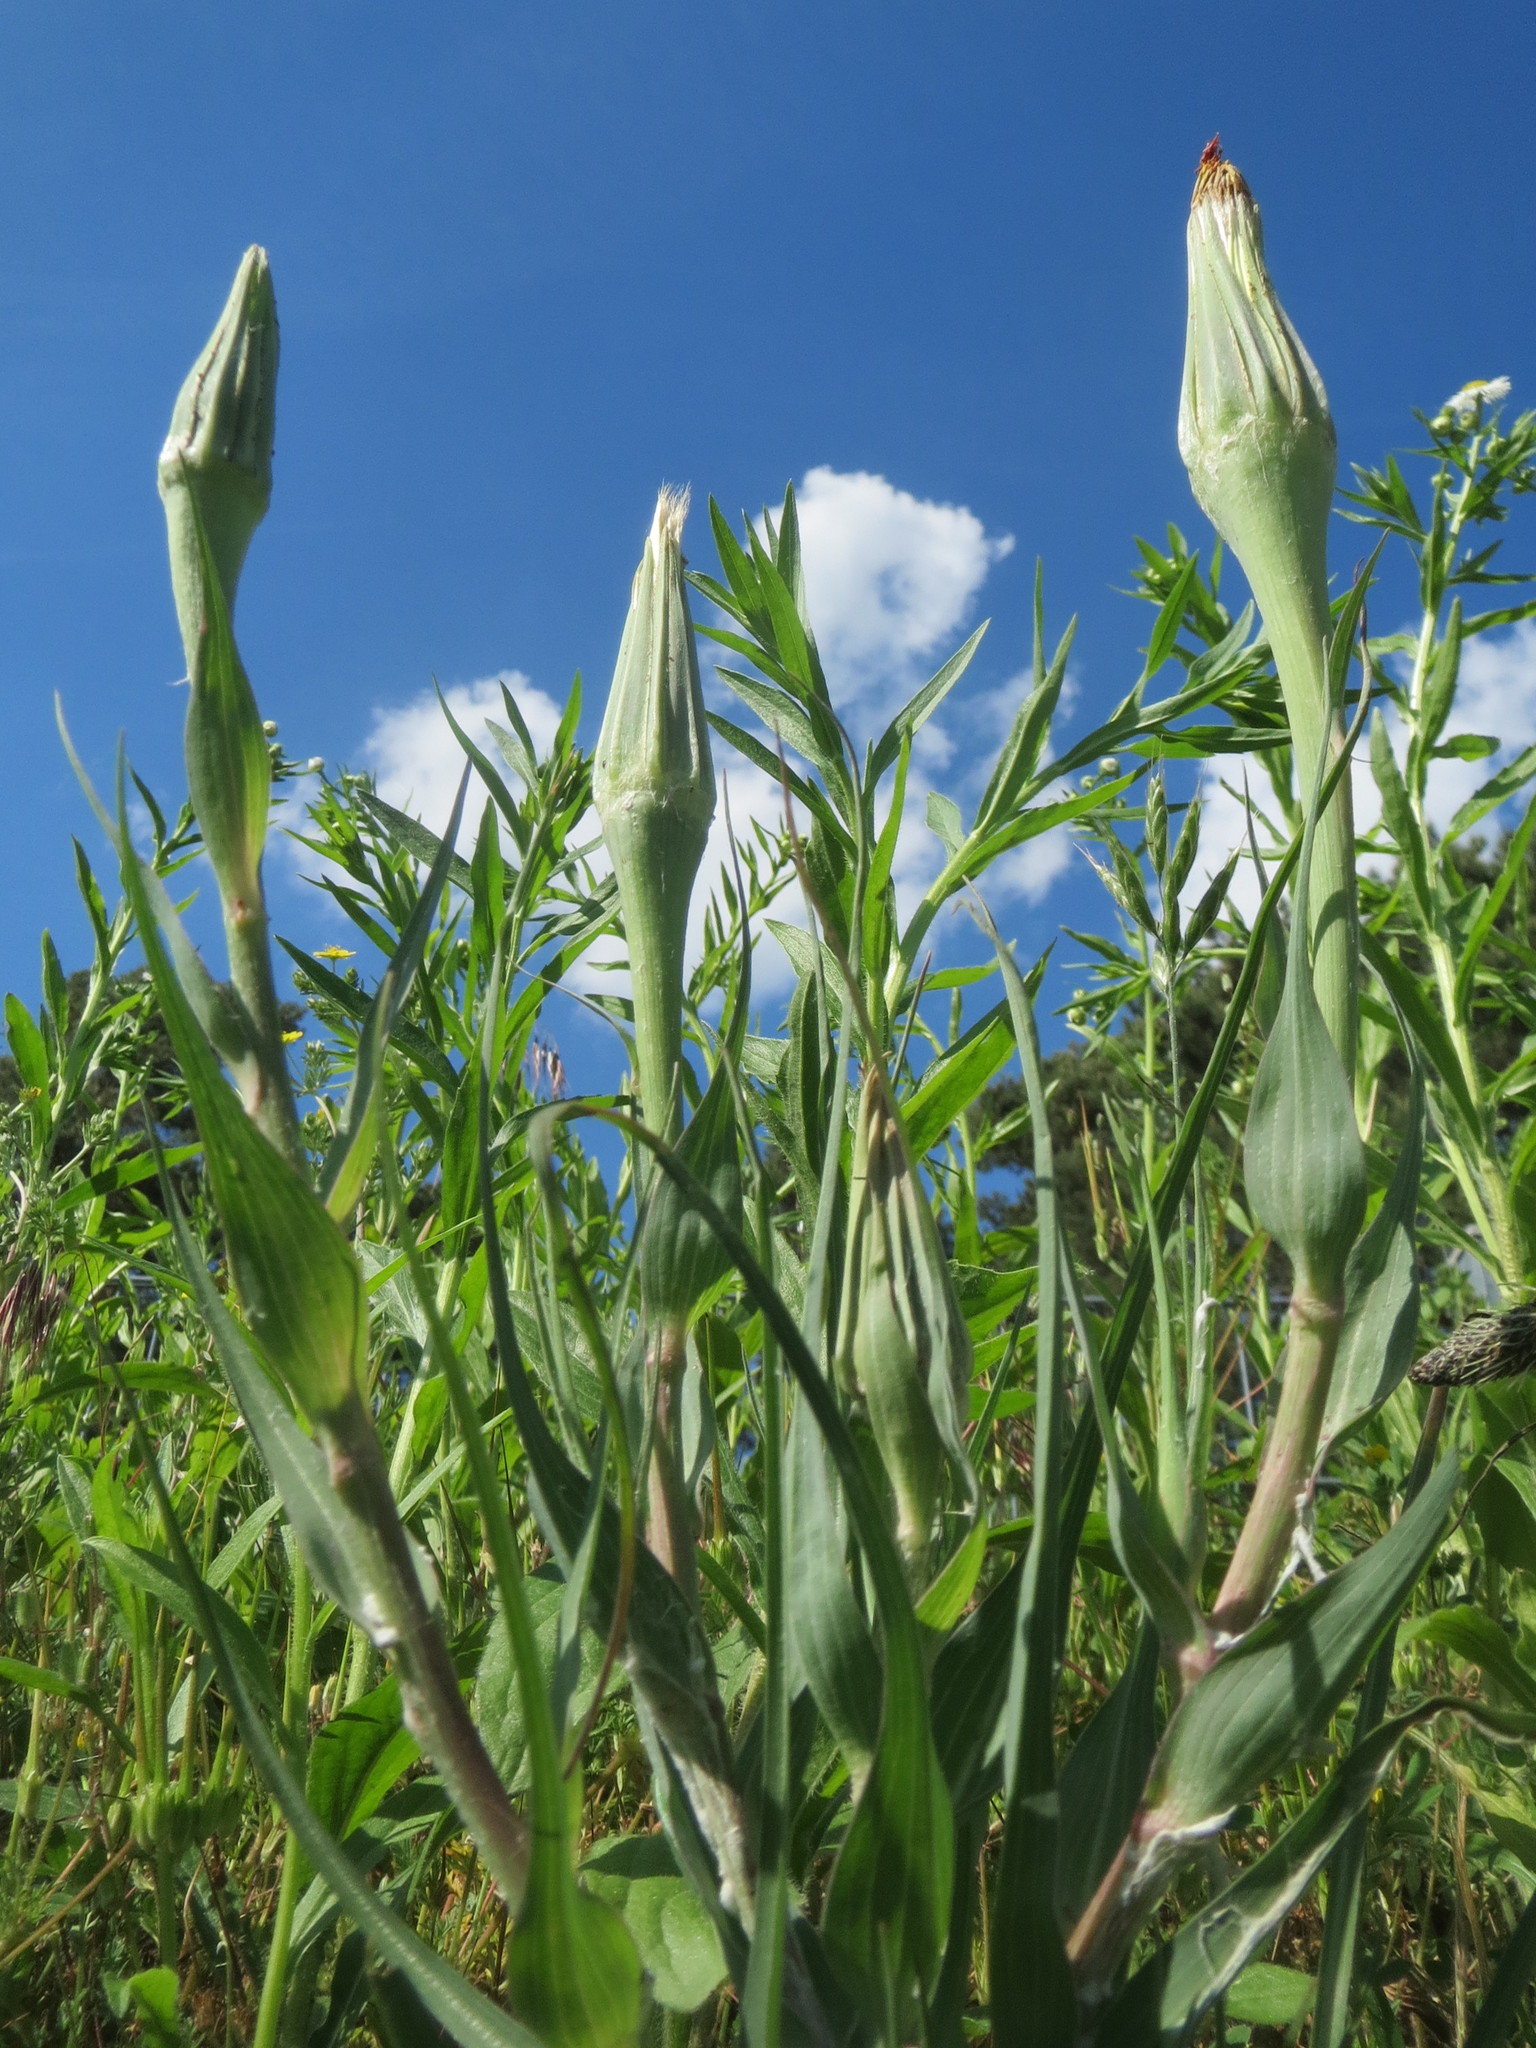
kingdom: Plantae
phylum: Tracheophyta
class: Magnoliopsida
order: Asterales
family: Asteraceae
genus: Tragopogon
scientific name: Tragopogon dubius
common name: Yellow salsify
